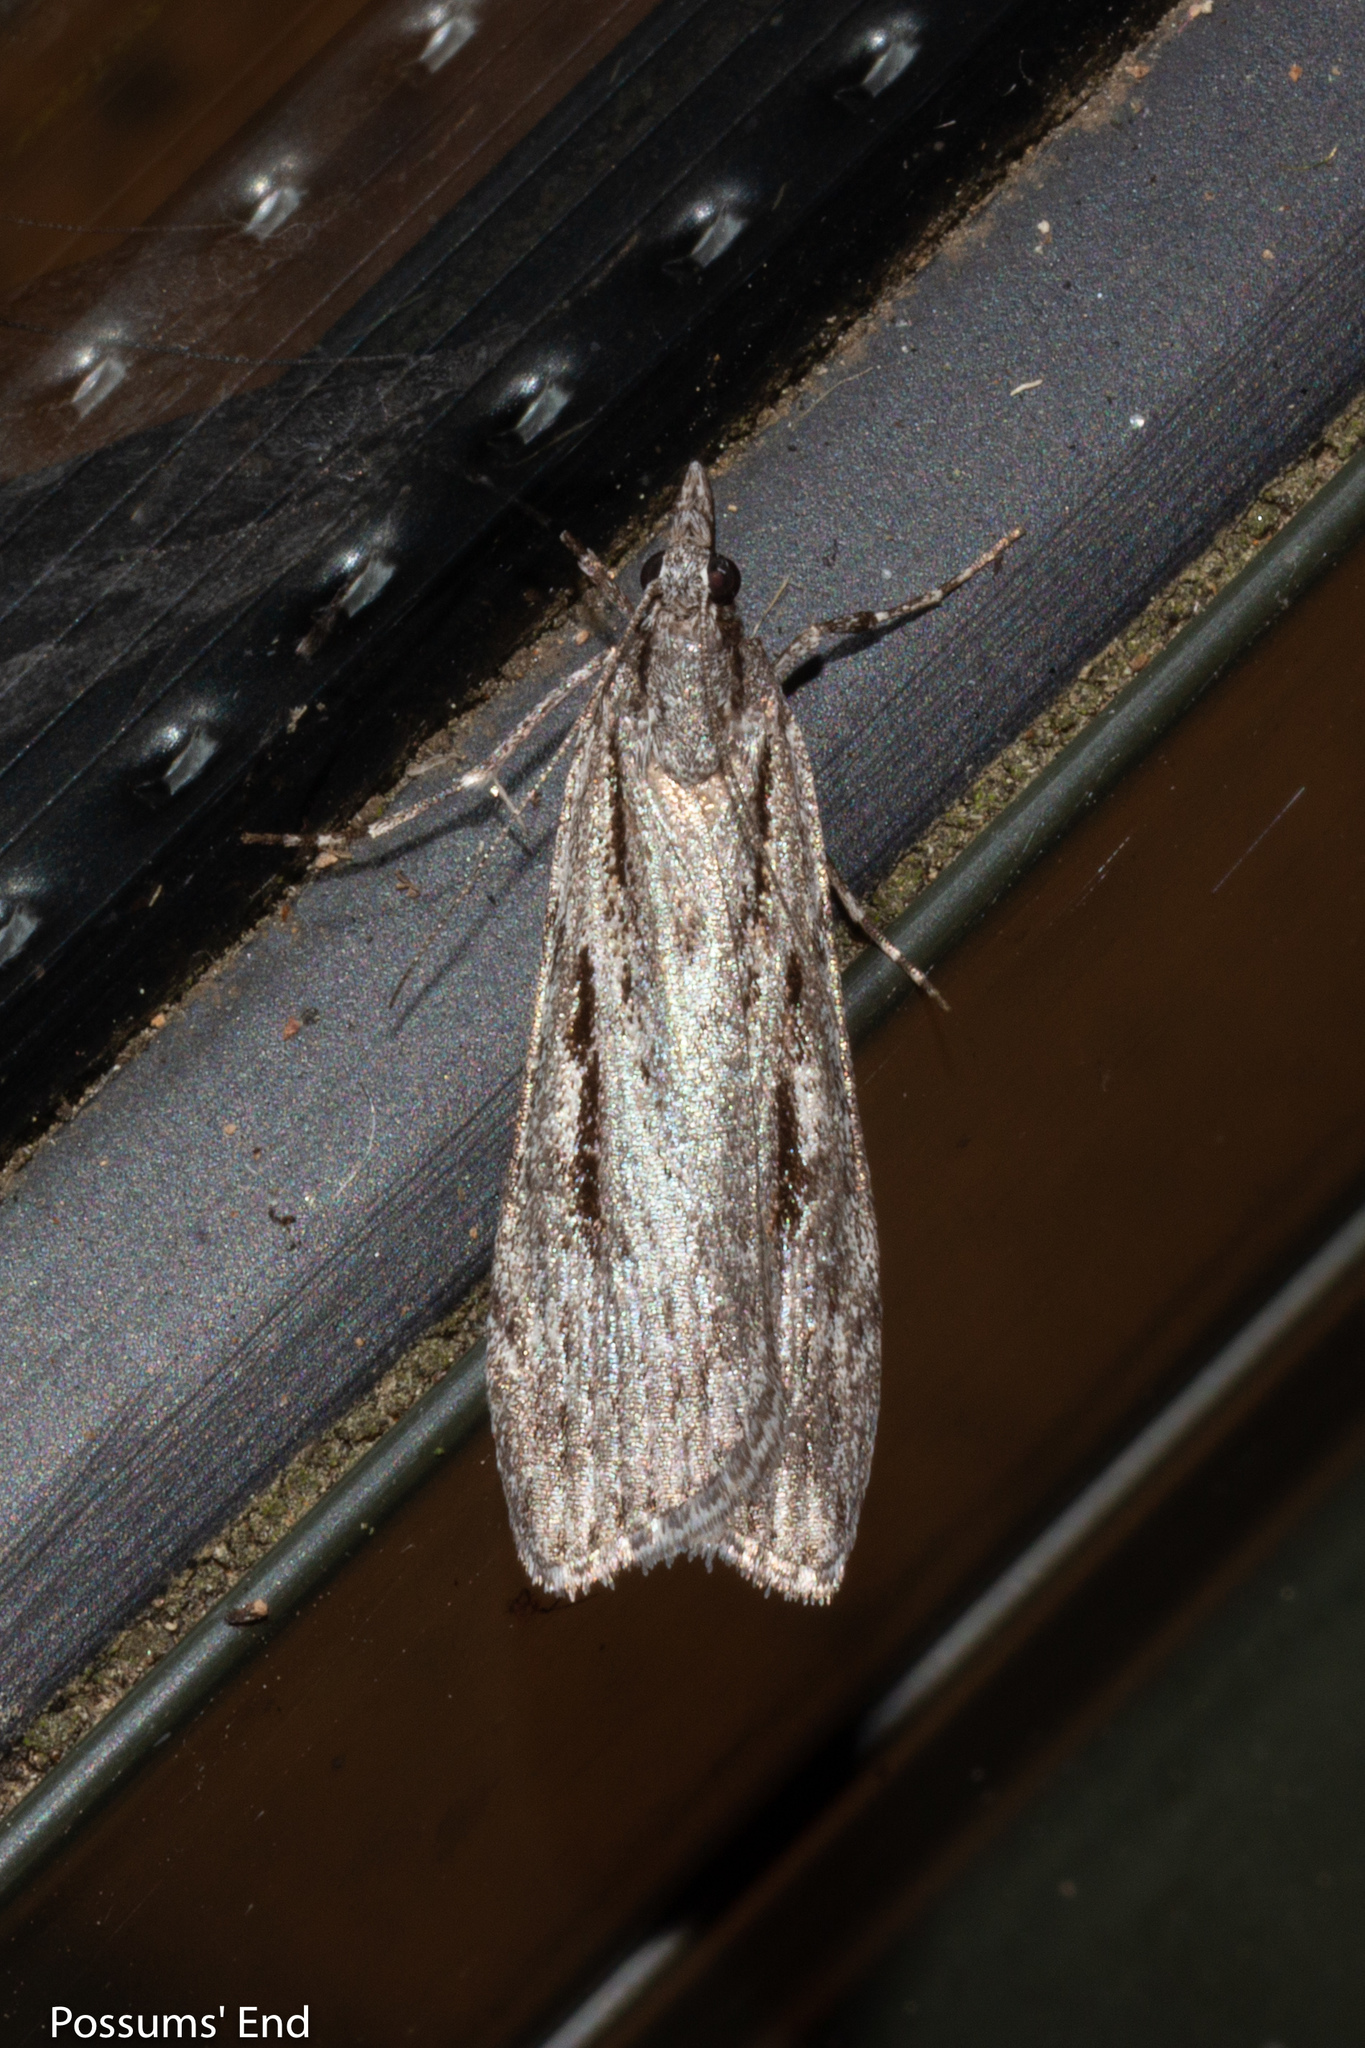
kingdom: Animalia
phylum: Arthropoda
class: Insecta
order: Lepidoptera
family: Crambidae
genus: Scoparia
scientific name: Scoparia indistinctalis
